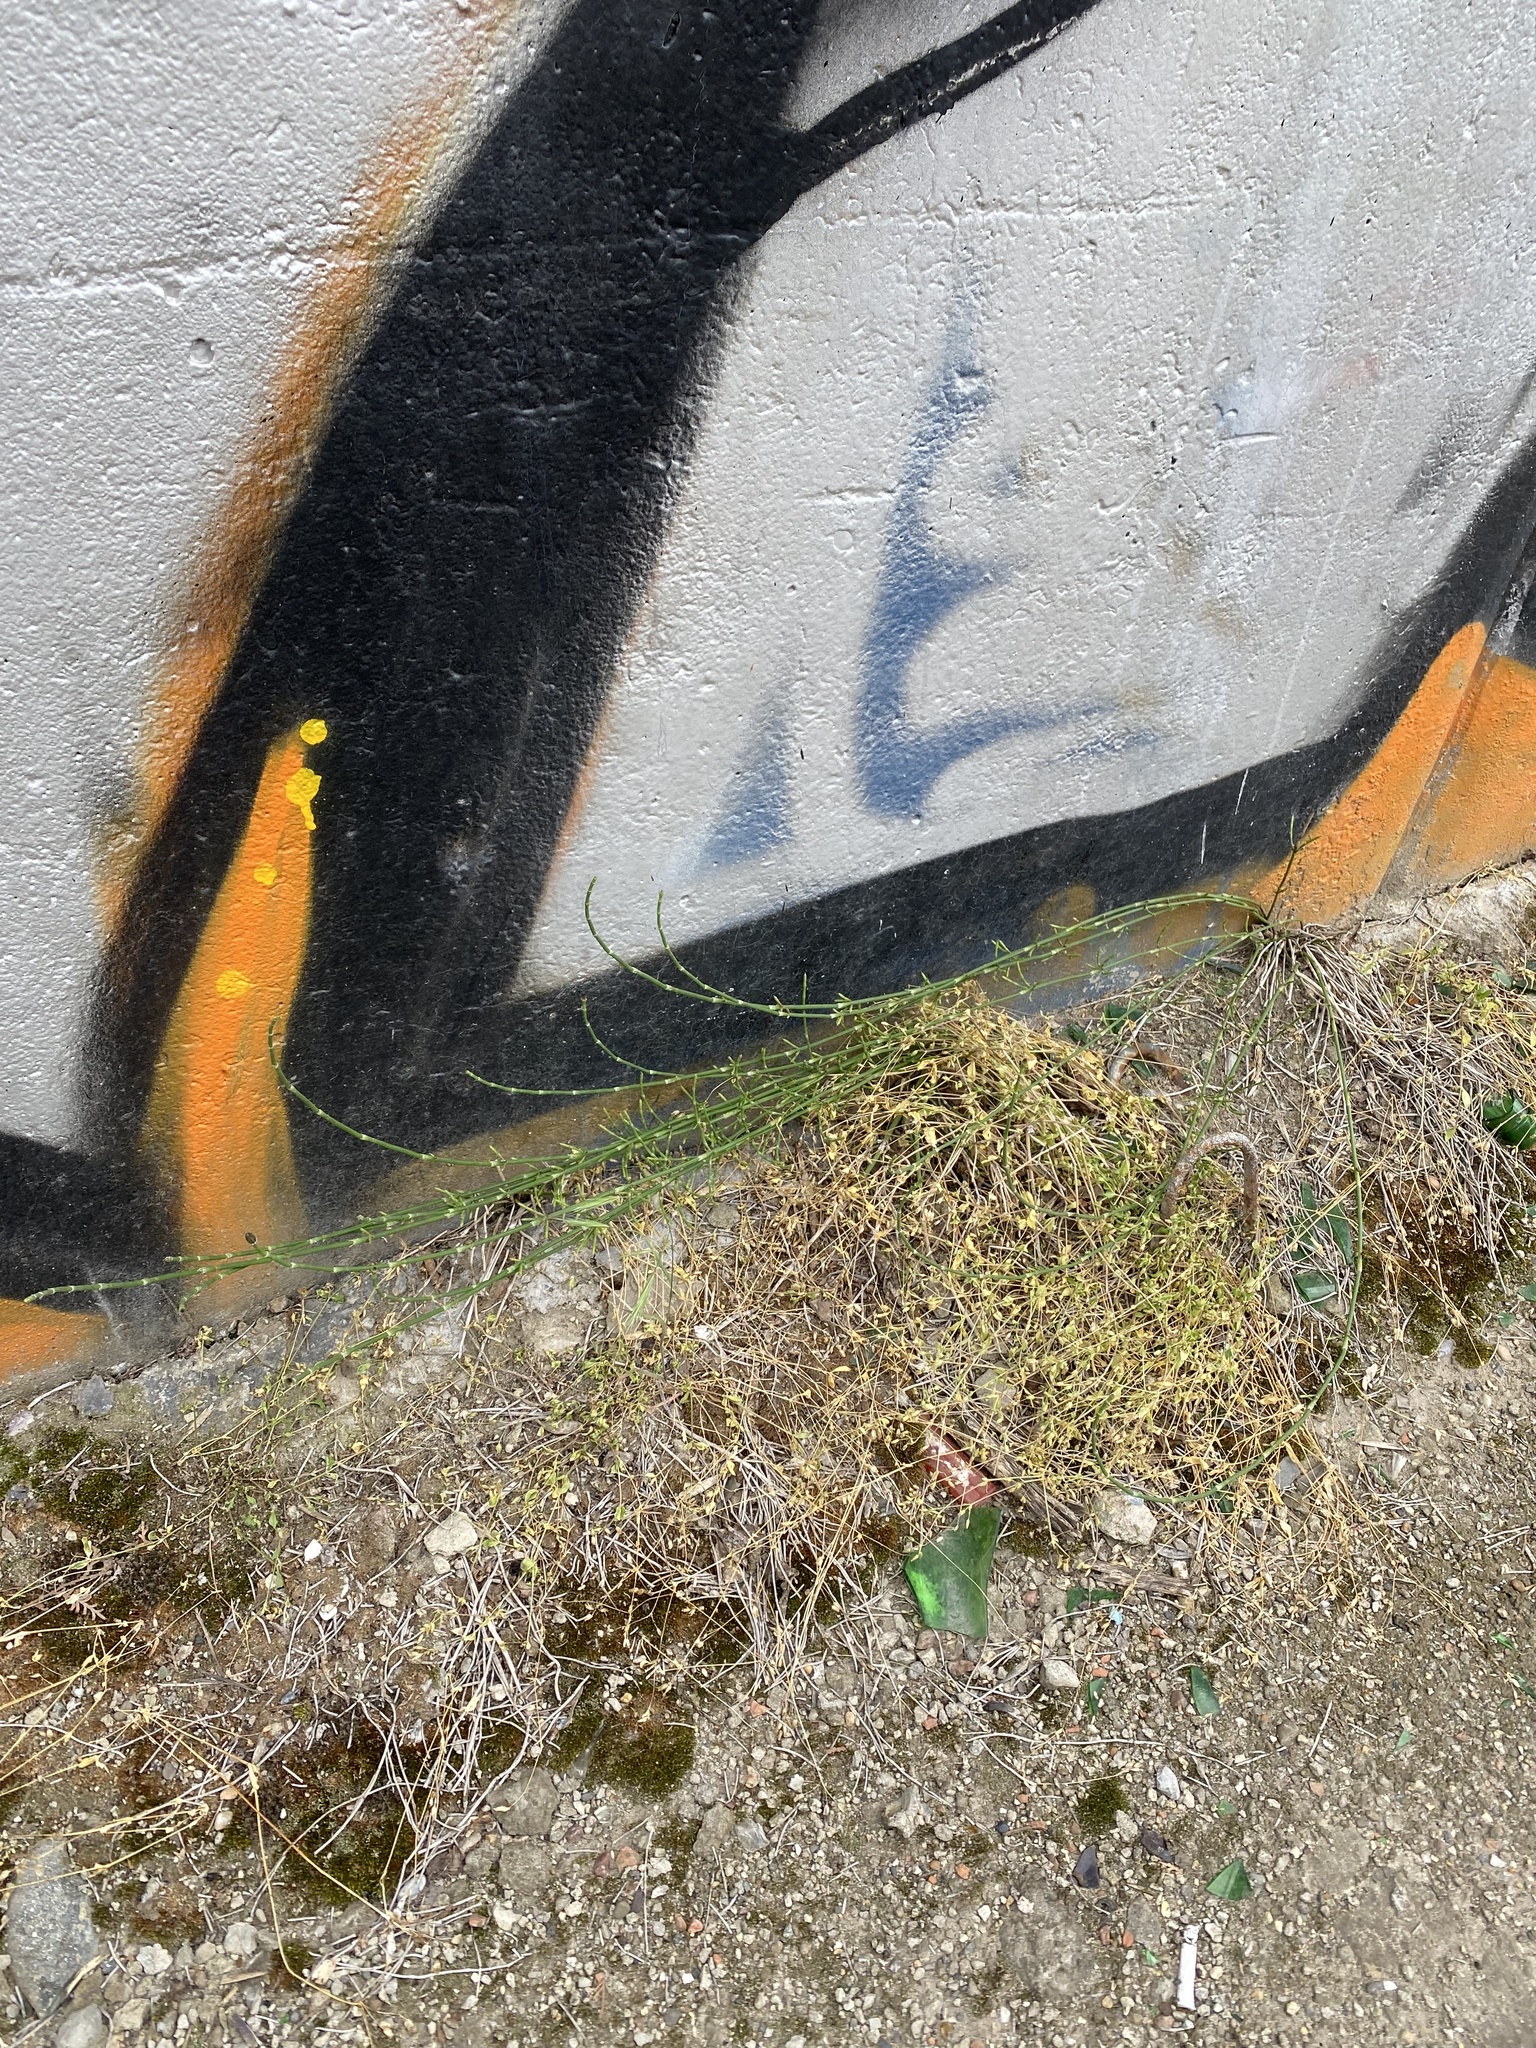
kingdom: Plantae
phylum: Tracheophyta
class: Polypodiopsida
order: Equisetales
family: Equisetaceae
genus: Equisetum
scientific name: Equisetum ramosissimum
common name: Branched horsetail
